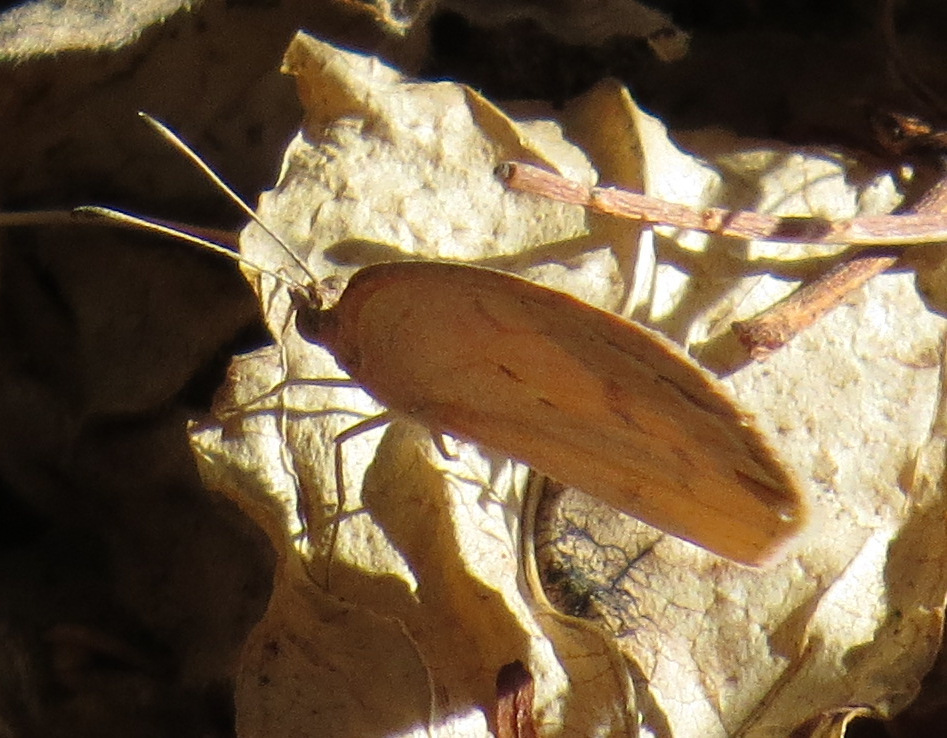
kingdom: Animalia
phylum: Arthropoda
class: Insecta
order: Lepidoptera
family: Pieridae
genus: Eurema
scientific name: Eurema daira
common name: Barred sulphur
